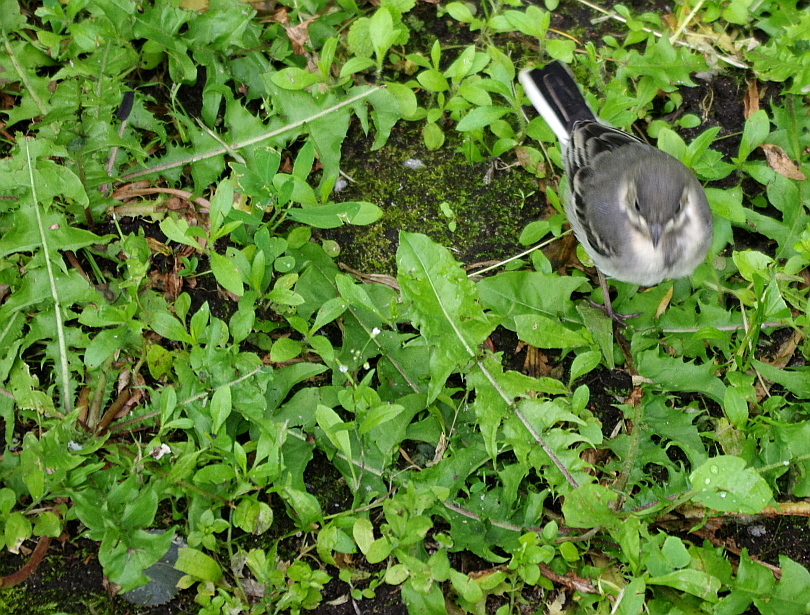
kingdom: Plantae
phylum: Tracheophyta
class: Magnoliopsida
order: Asterales
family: Asteraceae
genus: Taraxacum
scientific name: Taraxacum officinale
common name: Common dandelion
